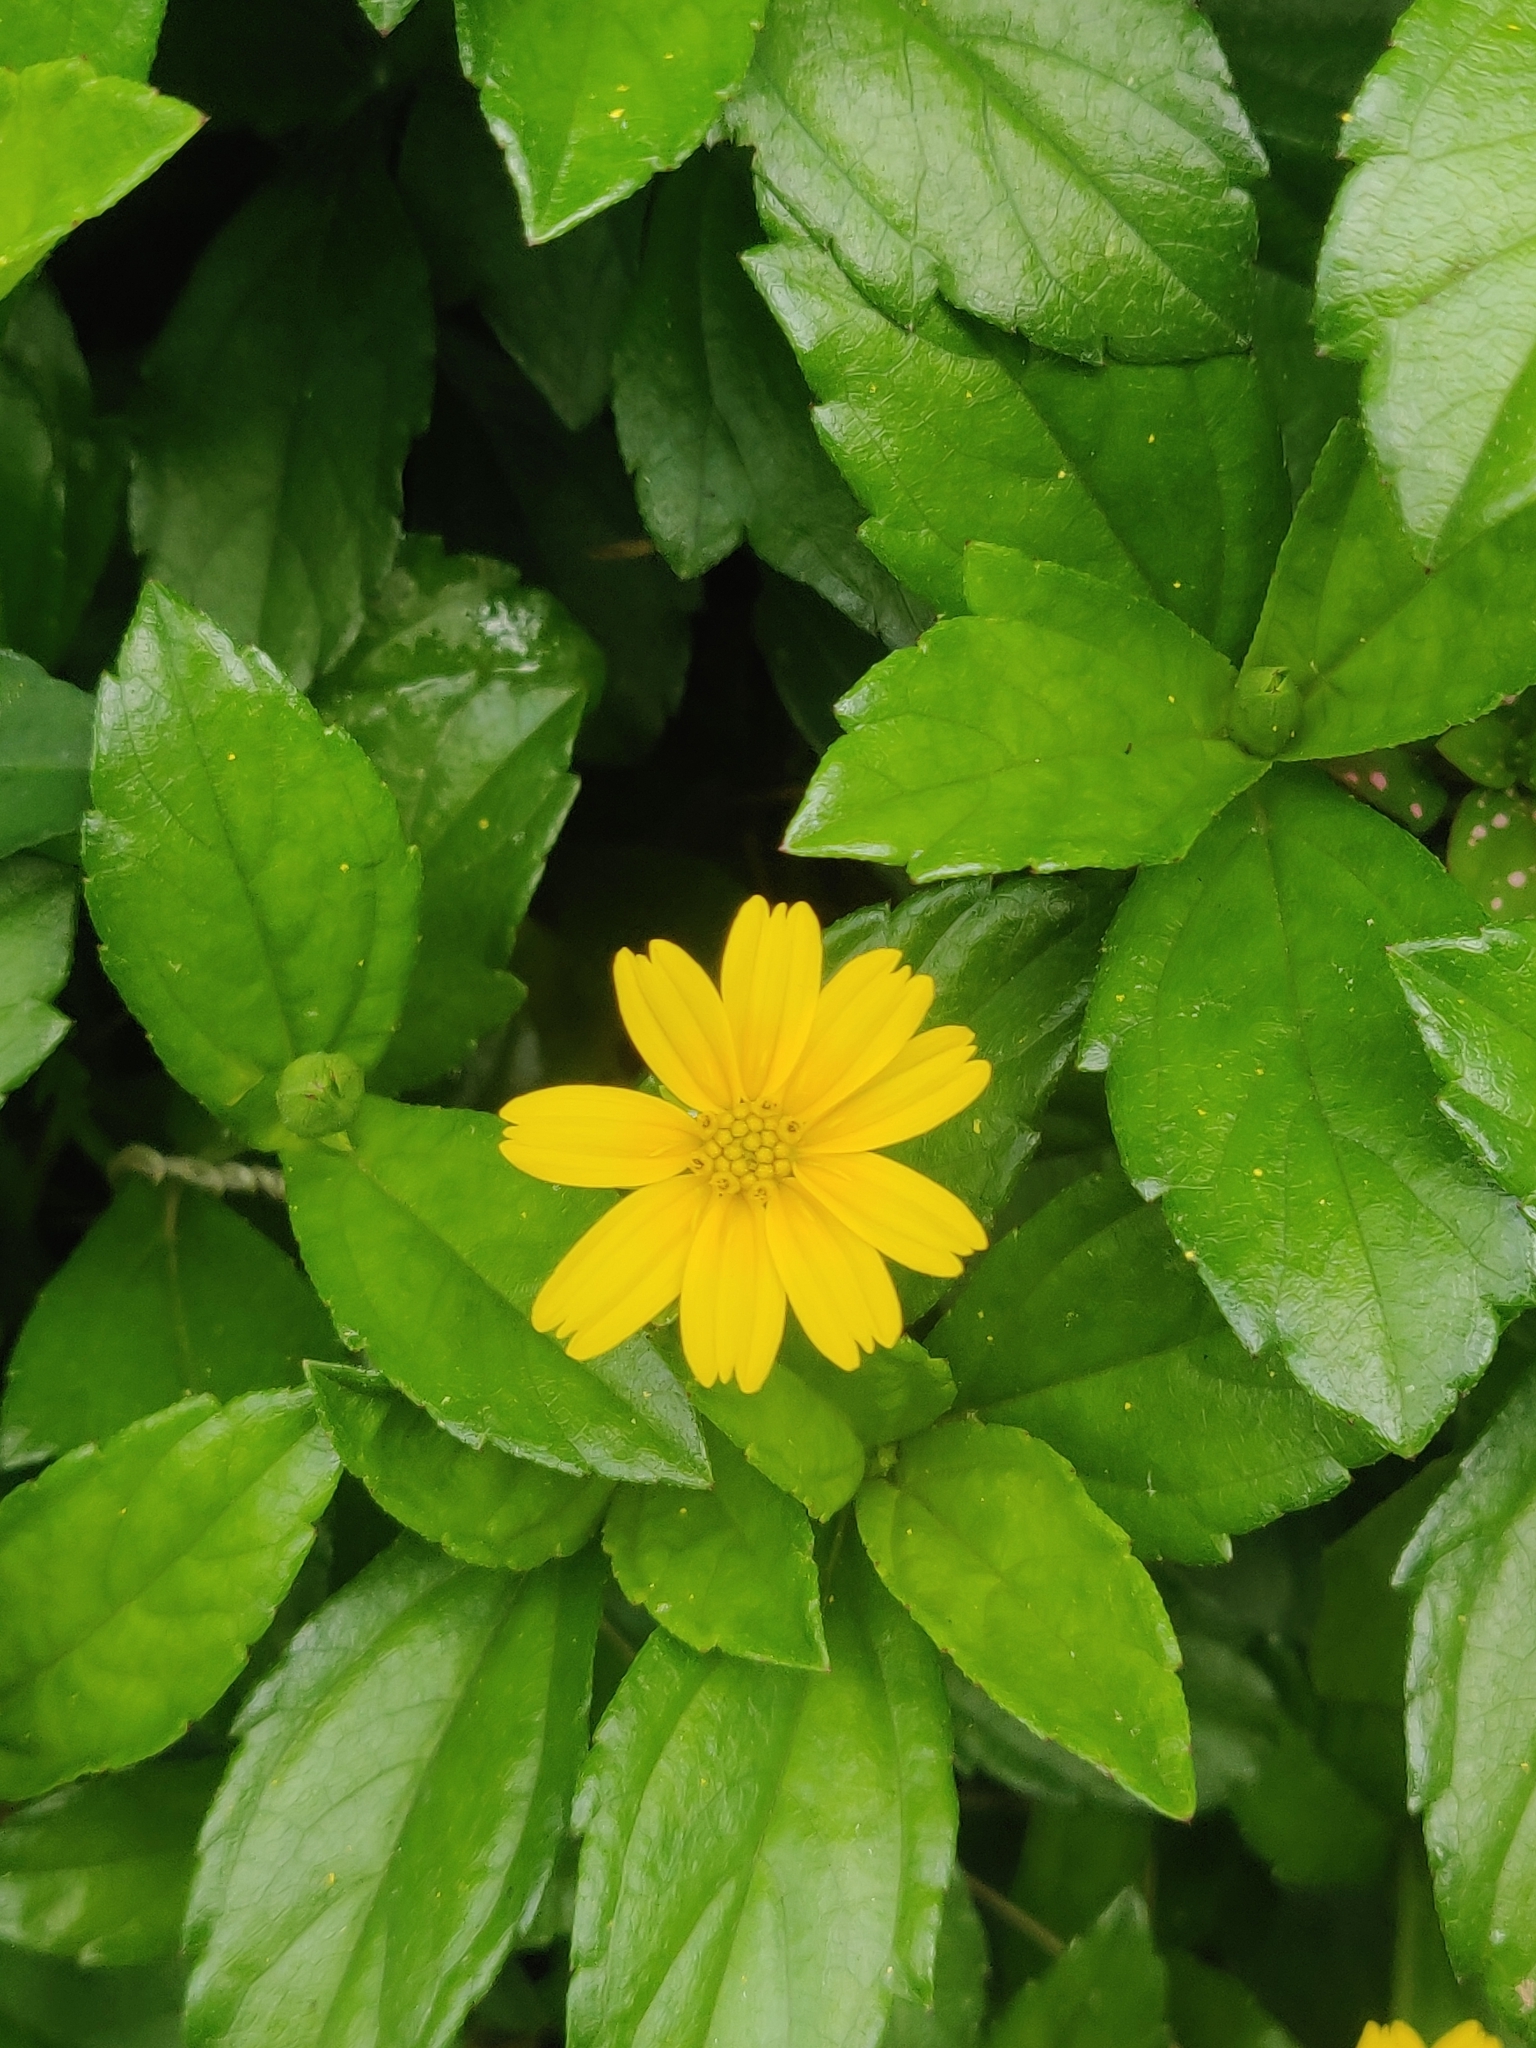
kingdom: Plantae
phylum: Tracheophyta
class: Magnoliopsida
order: Asterales
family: Asteraceae
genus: Sphagneticola
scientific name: Sphagneticola trilobata
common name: Bay biscayne creeping-oxeye
